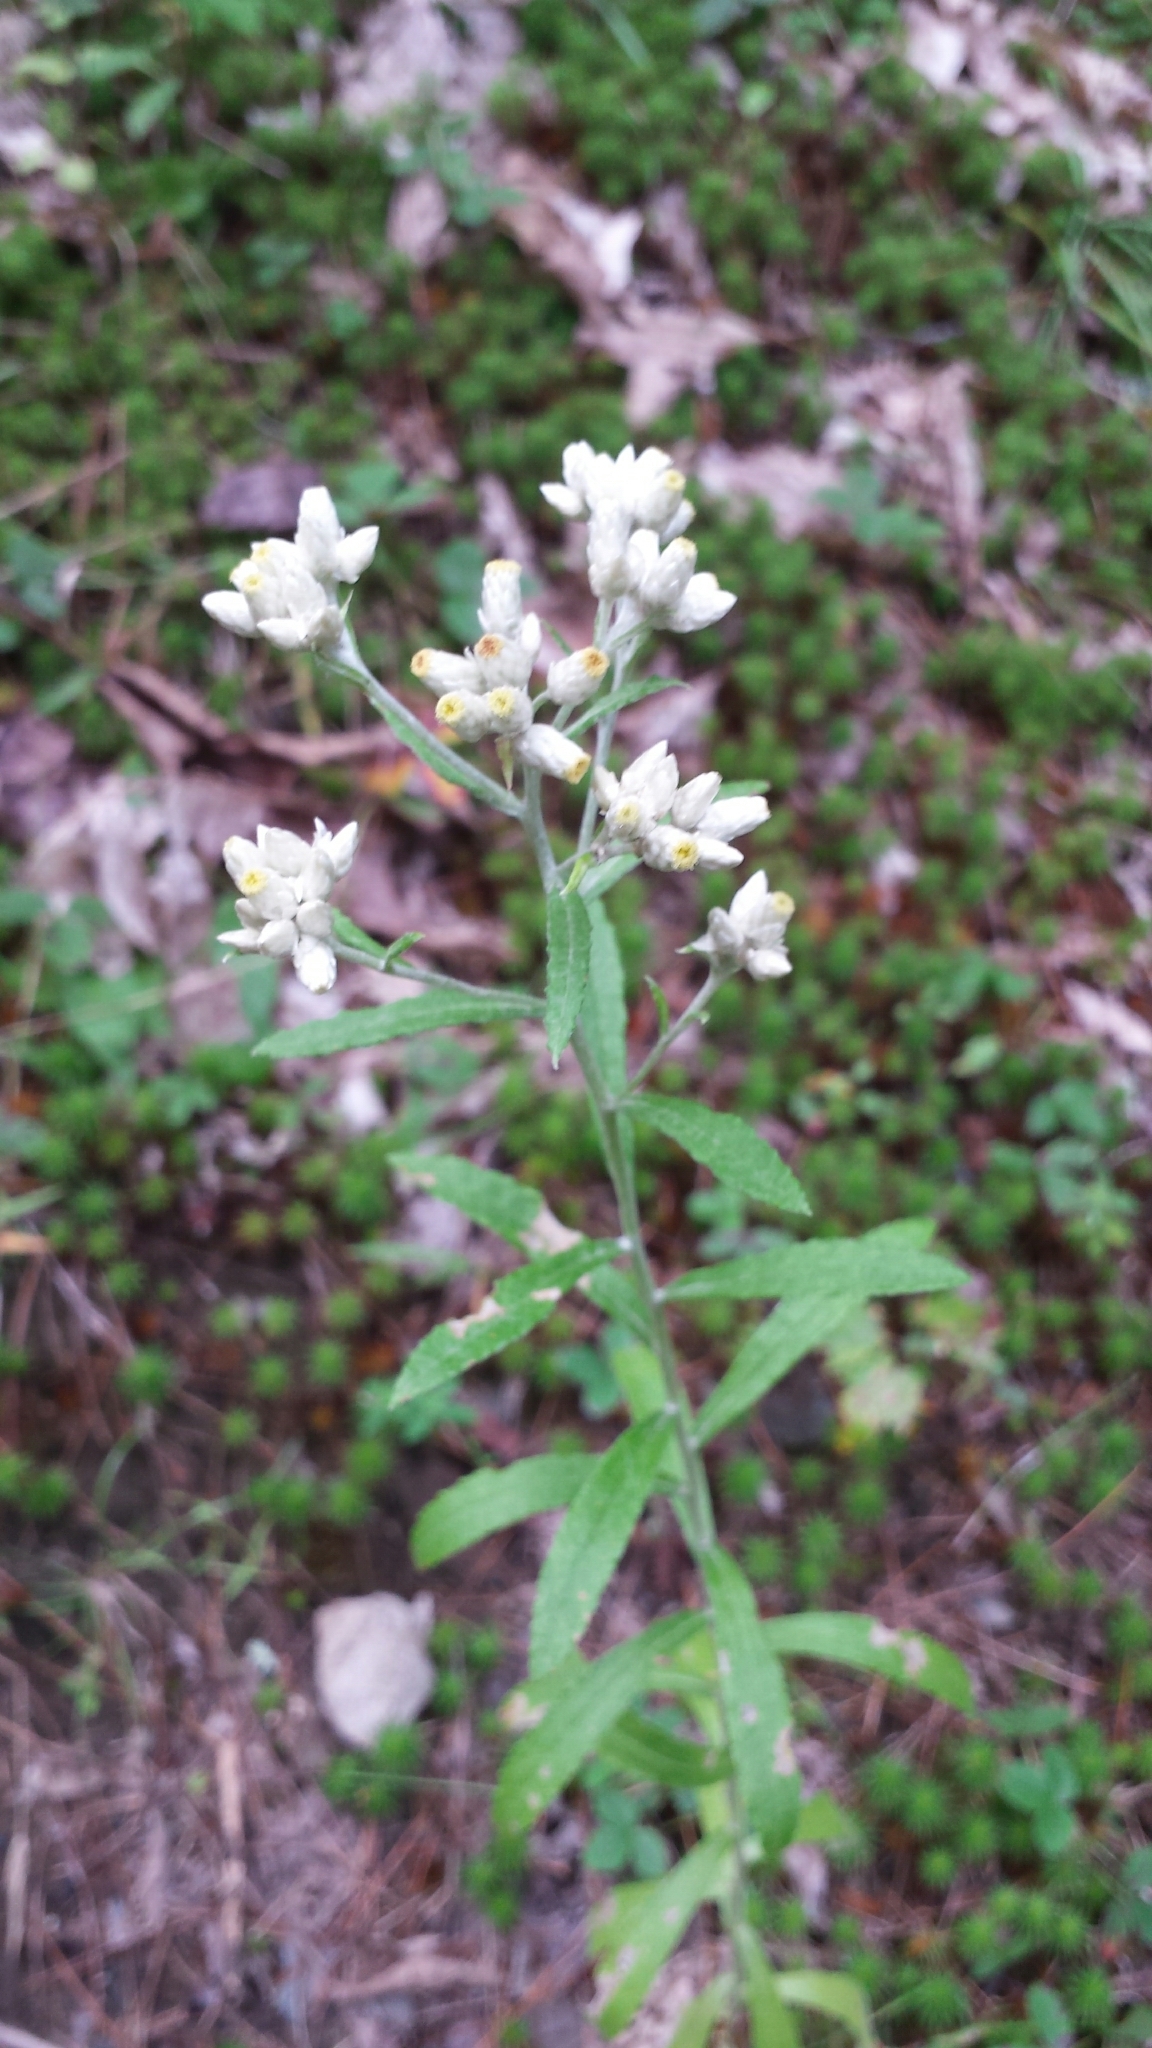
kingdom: Plantae
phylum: Tracheophyta
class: Magnoliopsida
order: Asterales
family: Asteraceae
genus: Pseudognaphalium
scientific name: Pseudognaphalium obtusifolium
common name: Eastern rabbit-tobacco
